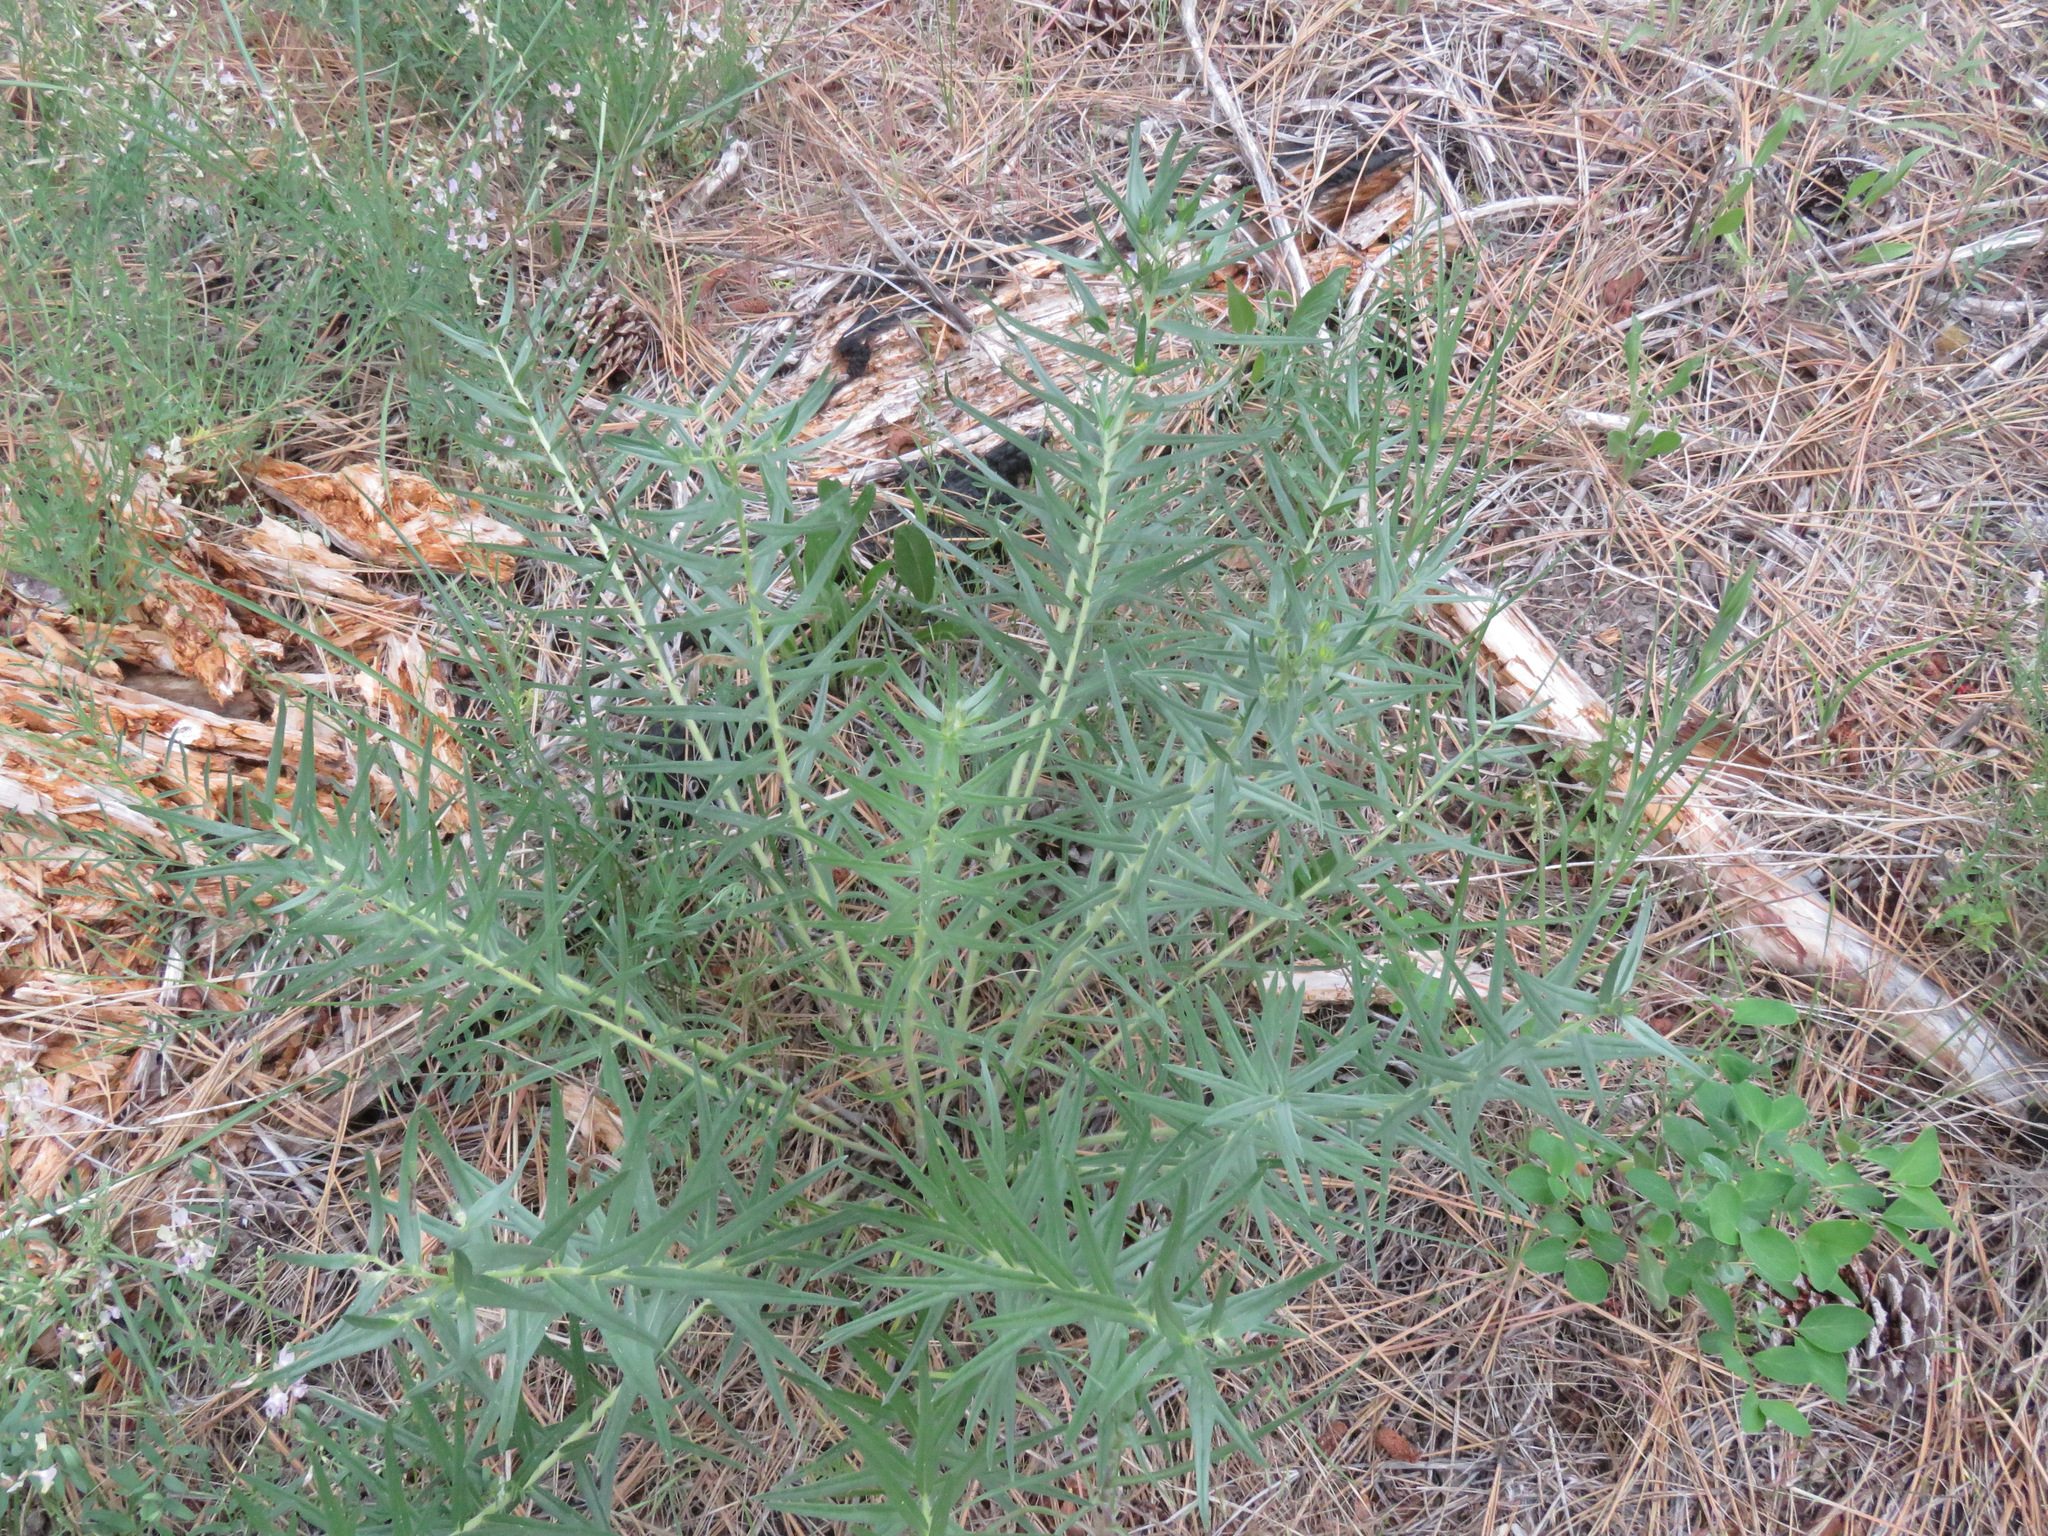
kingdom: Plantae
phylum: Tracheophyta
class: Magnoliopsida
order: Boraginales
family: Boraginaceae
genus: Lithospermum
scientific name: Lithospermum ruderale
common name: Western gromwell
